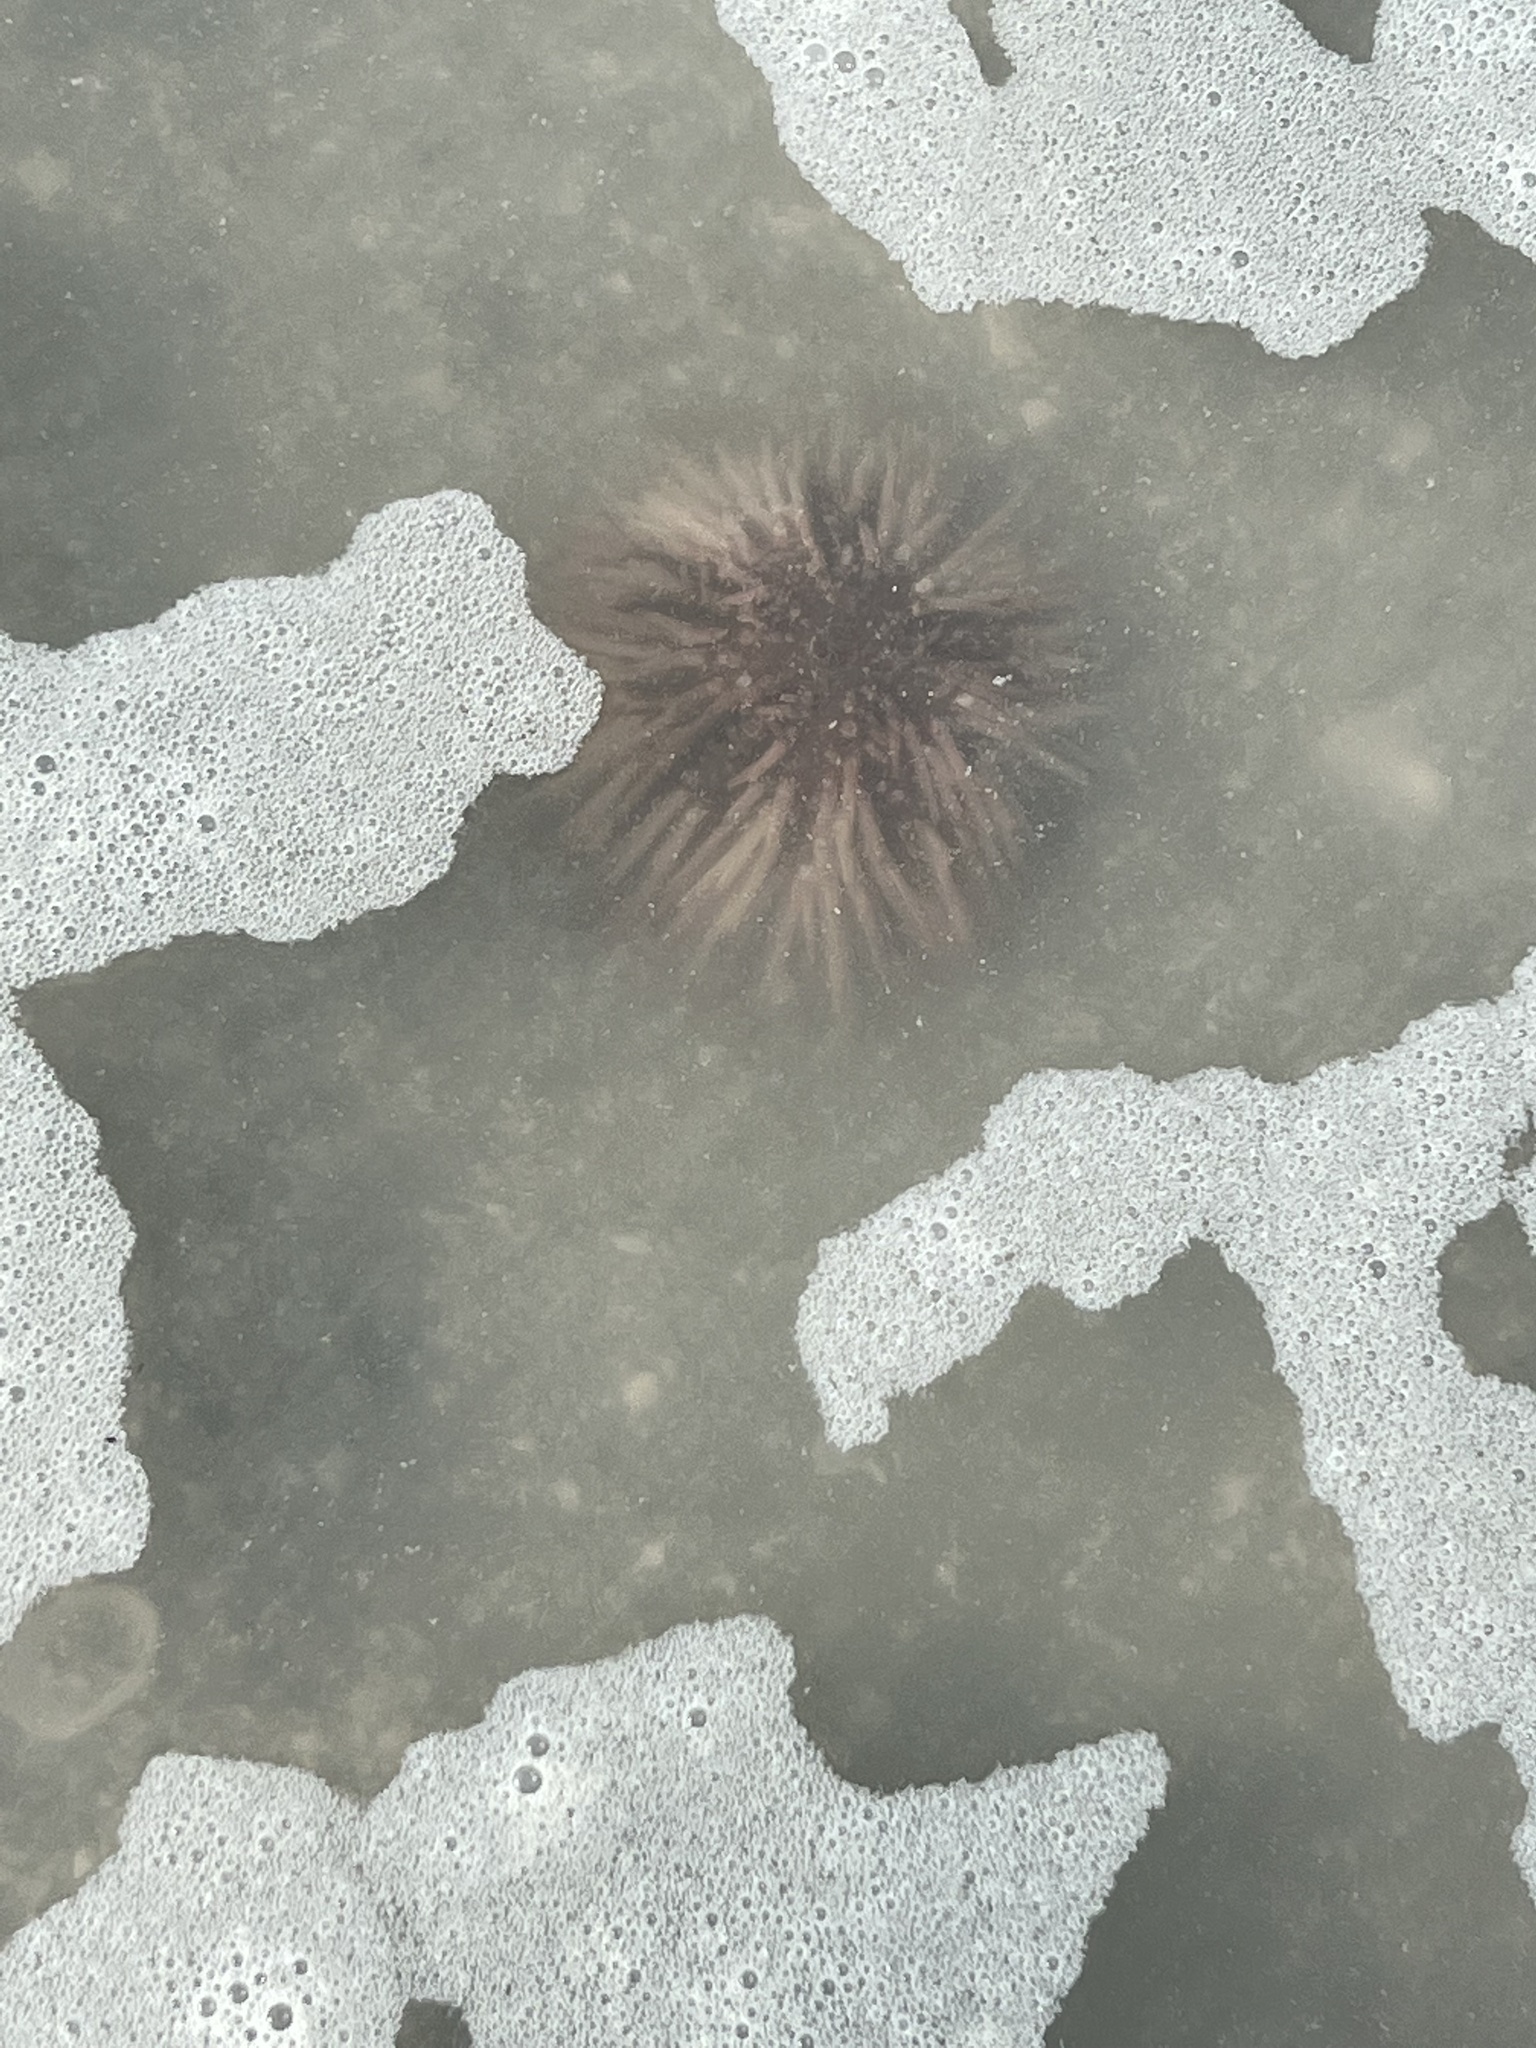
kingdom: Animalia
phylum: Echinodermata
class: Echinoidea
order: Arbacioida
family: Arbaciidae
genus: Arbacia
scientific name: Arbacia punctulata
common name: Purple-spined sea urchin
